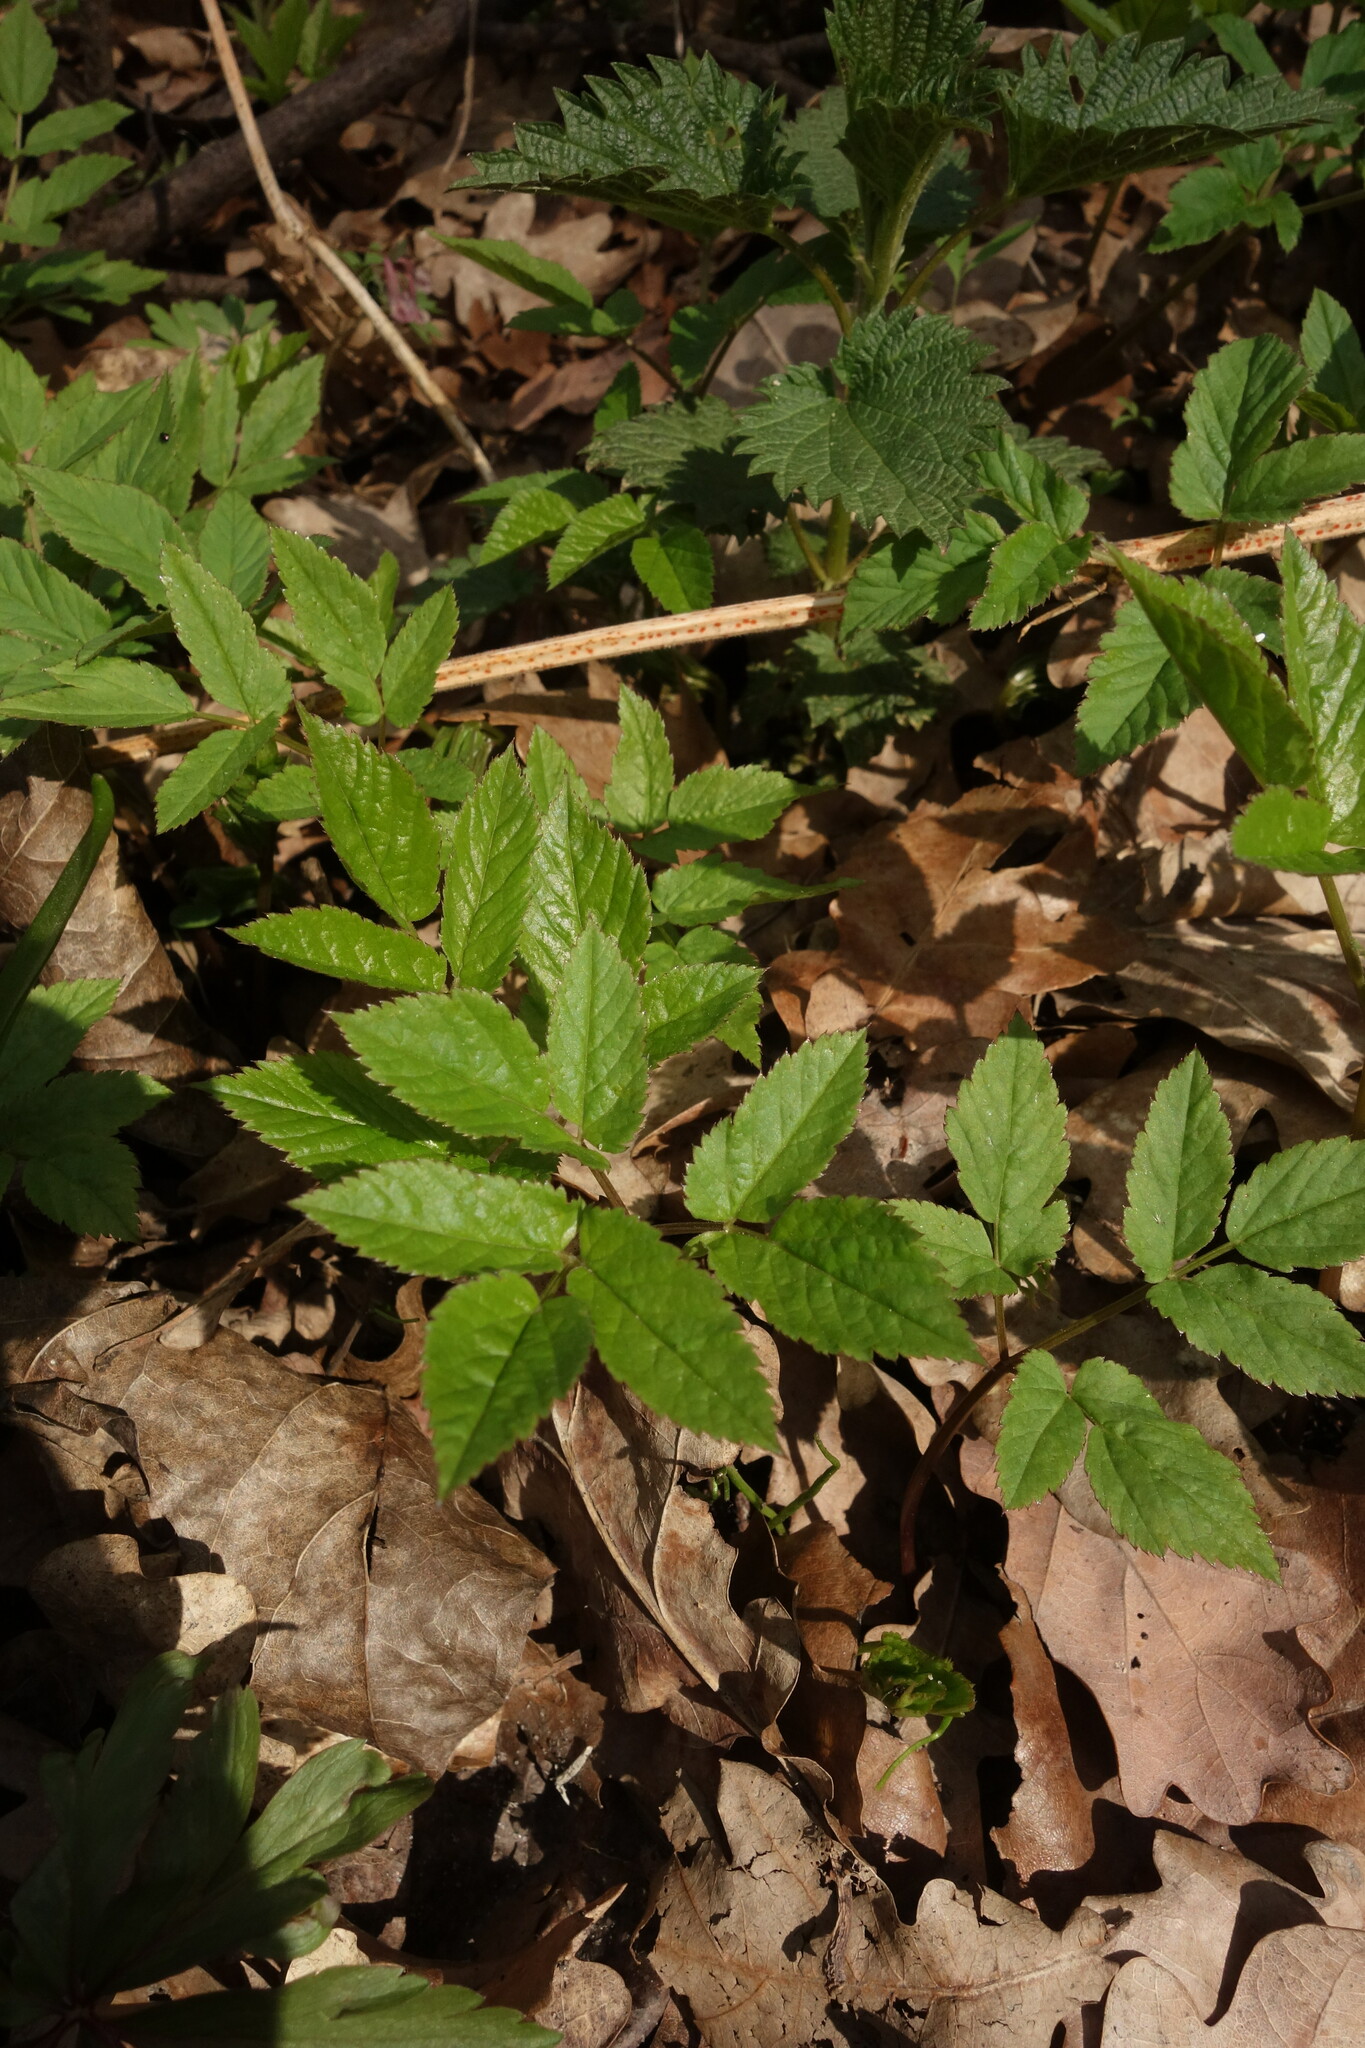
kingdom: Plantae
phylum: Tracheophyta
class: Magnoliopsida
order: Apiales
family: Apiaceae
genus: Aegopodium
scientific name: Aegopodium podagraria
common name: Ground-elder
